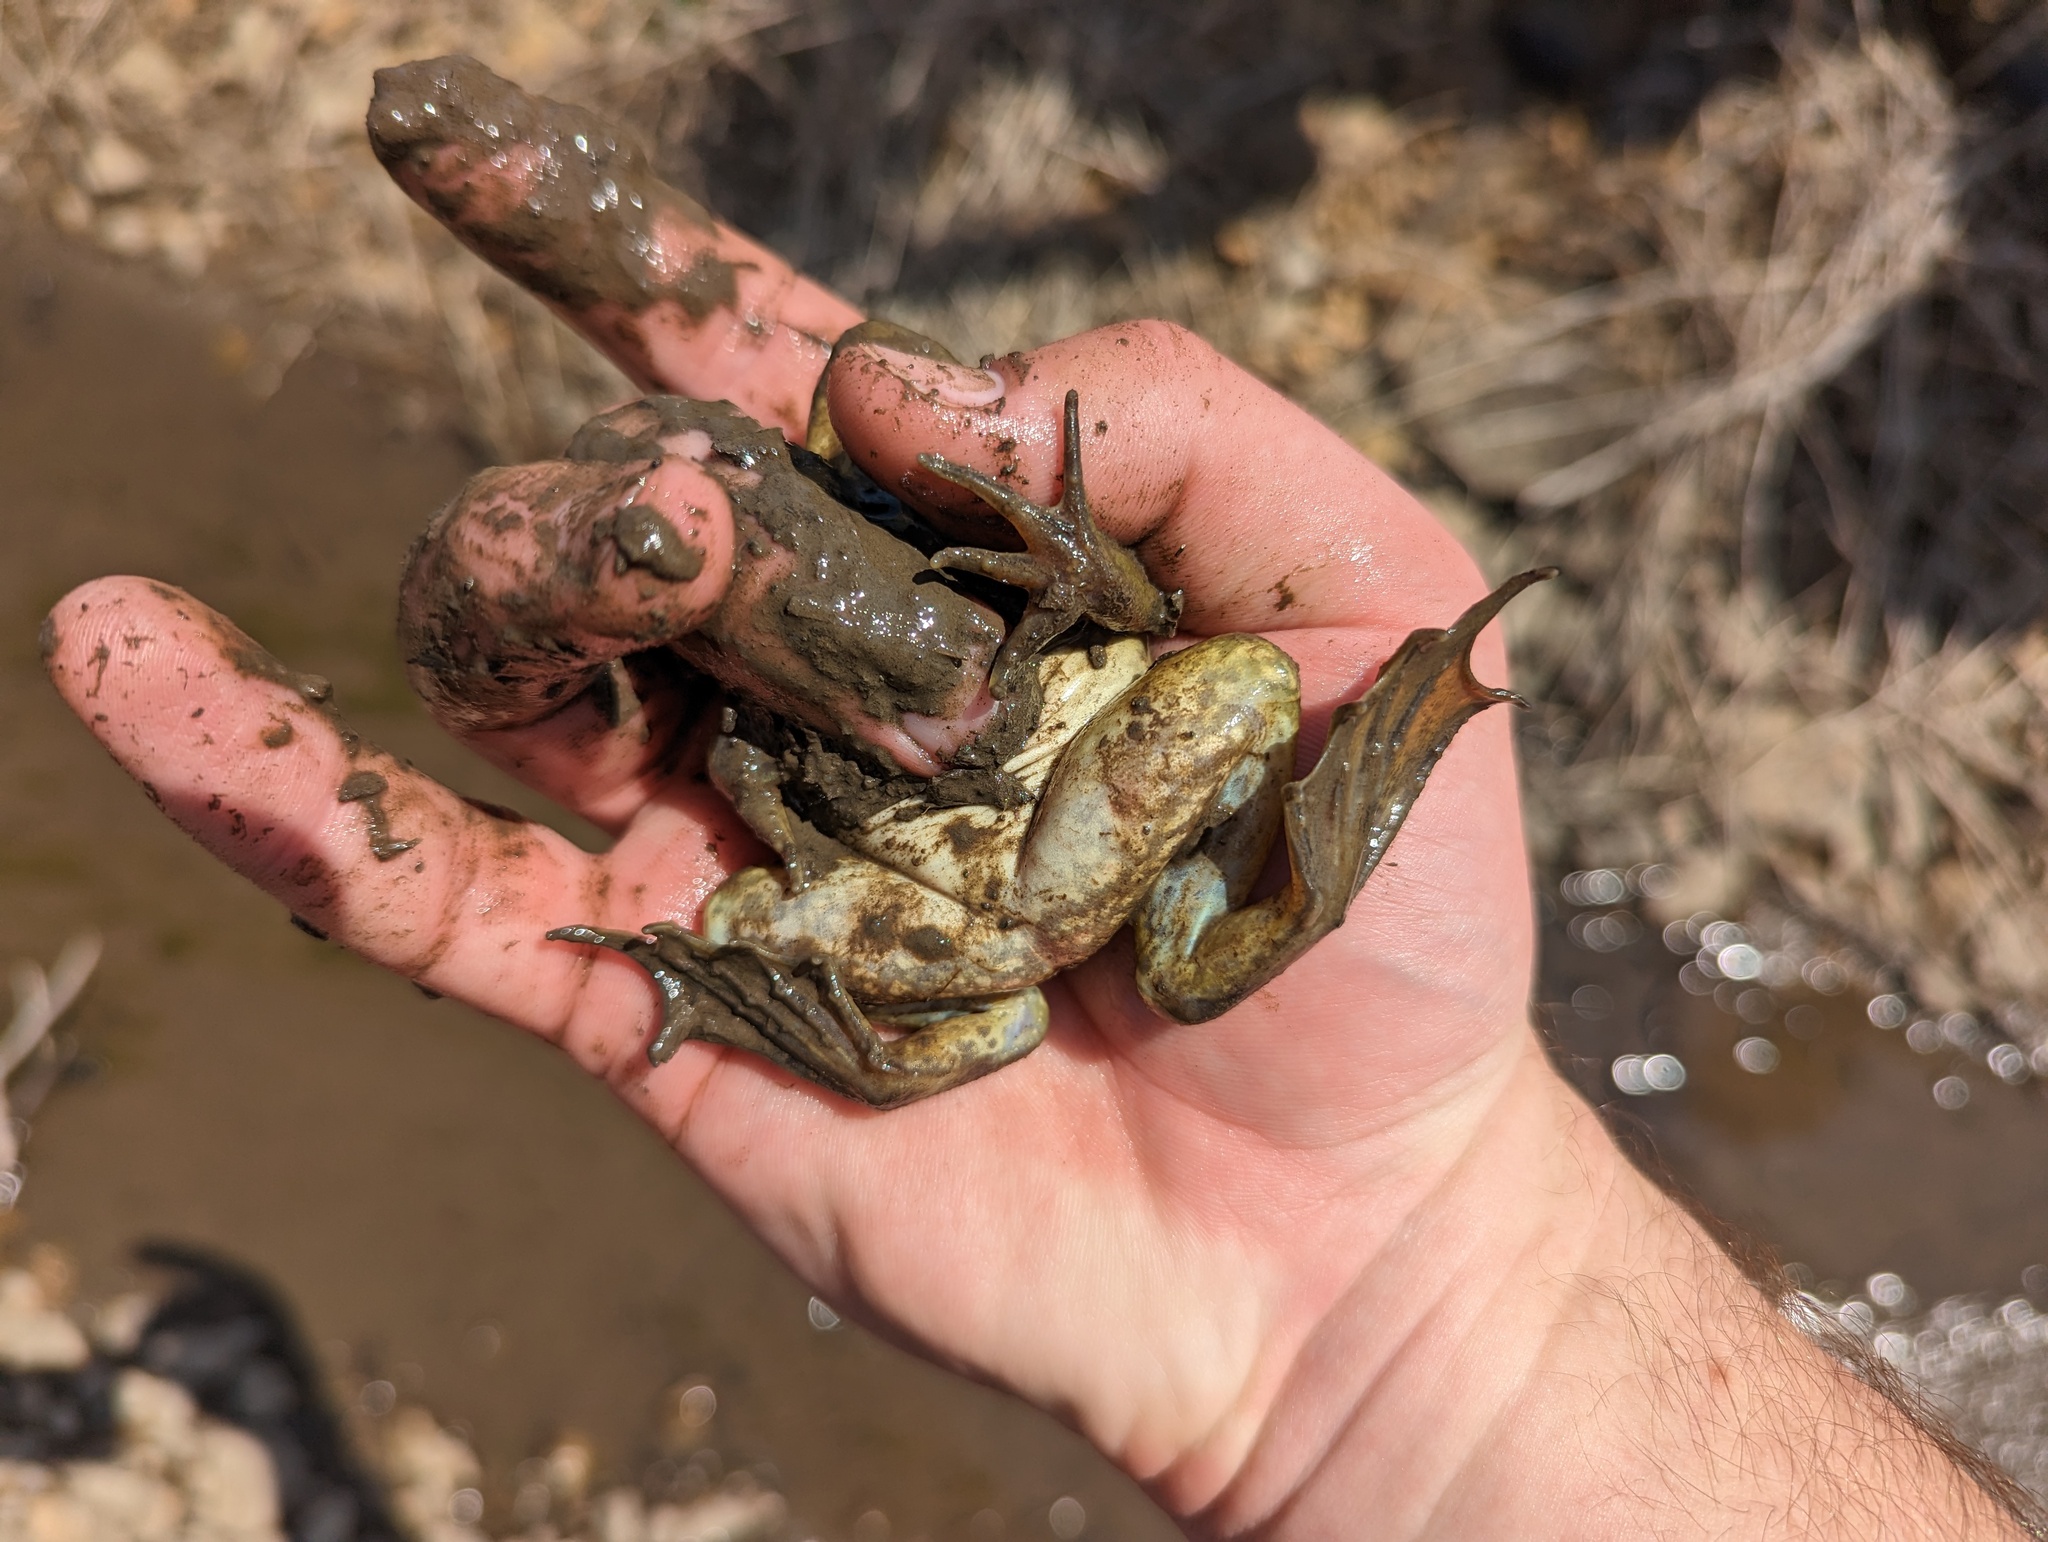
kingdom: Animalia
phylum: Chordata
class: Amphibia
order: Anura
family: Ranidae
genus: Lithobates
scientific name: Lithobates catesbeianus
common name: American bullfrog
